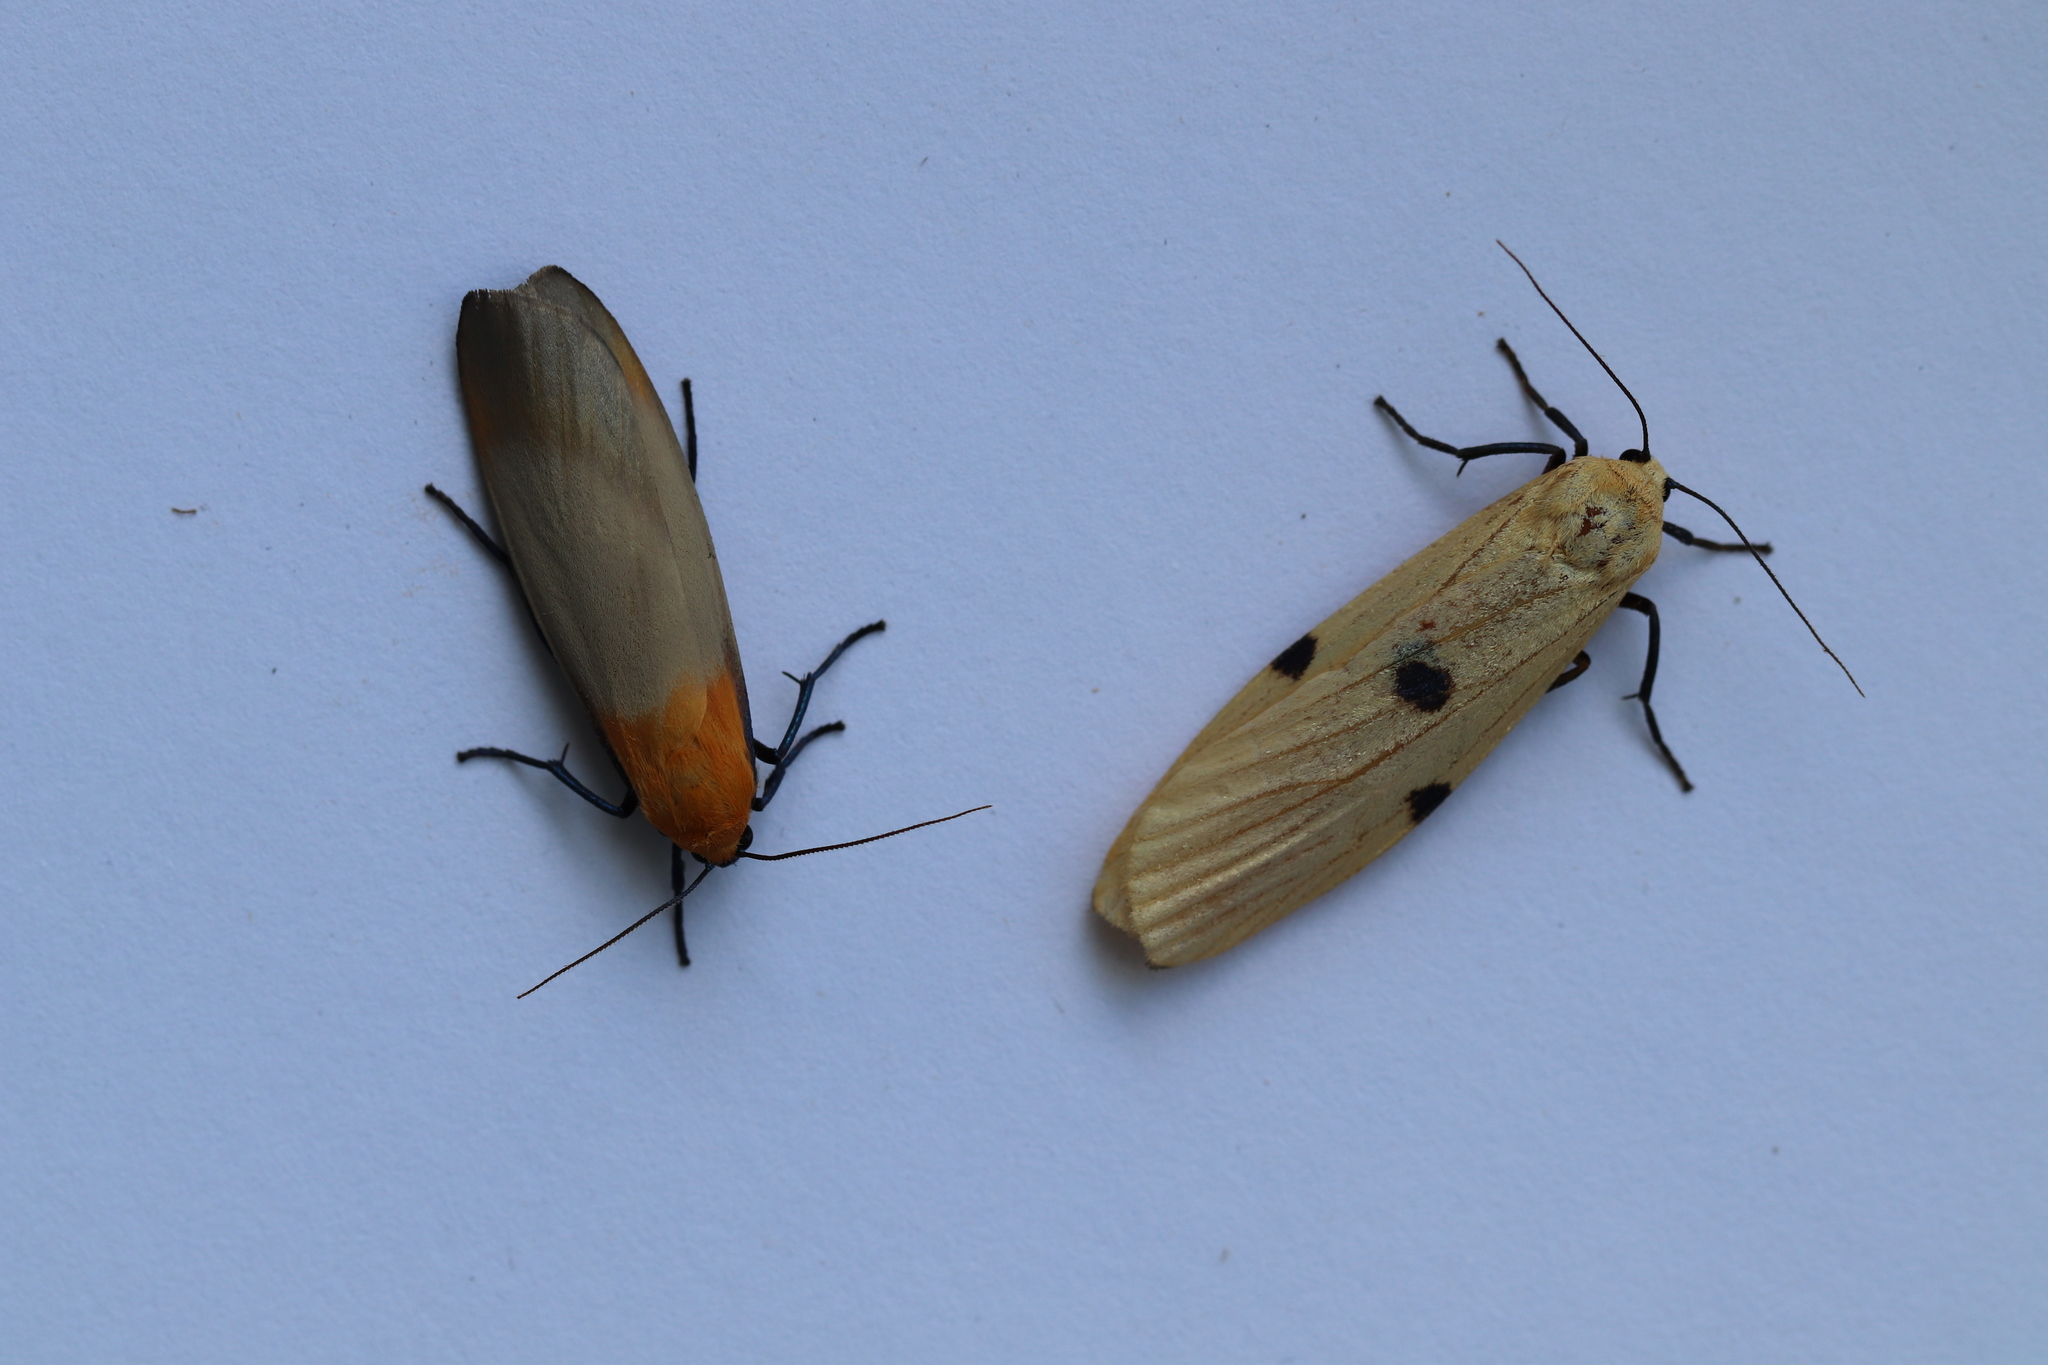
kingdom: Animalia
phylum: Arthropoda
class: Insecta
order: Lepidoptera
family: Erebidae
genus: Lithosia
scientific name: Lithosia quadra
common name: Four-spotted footman
